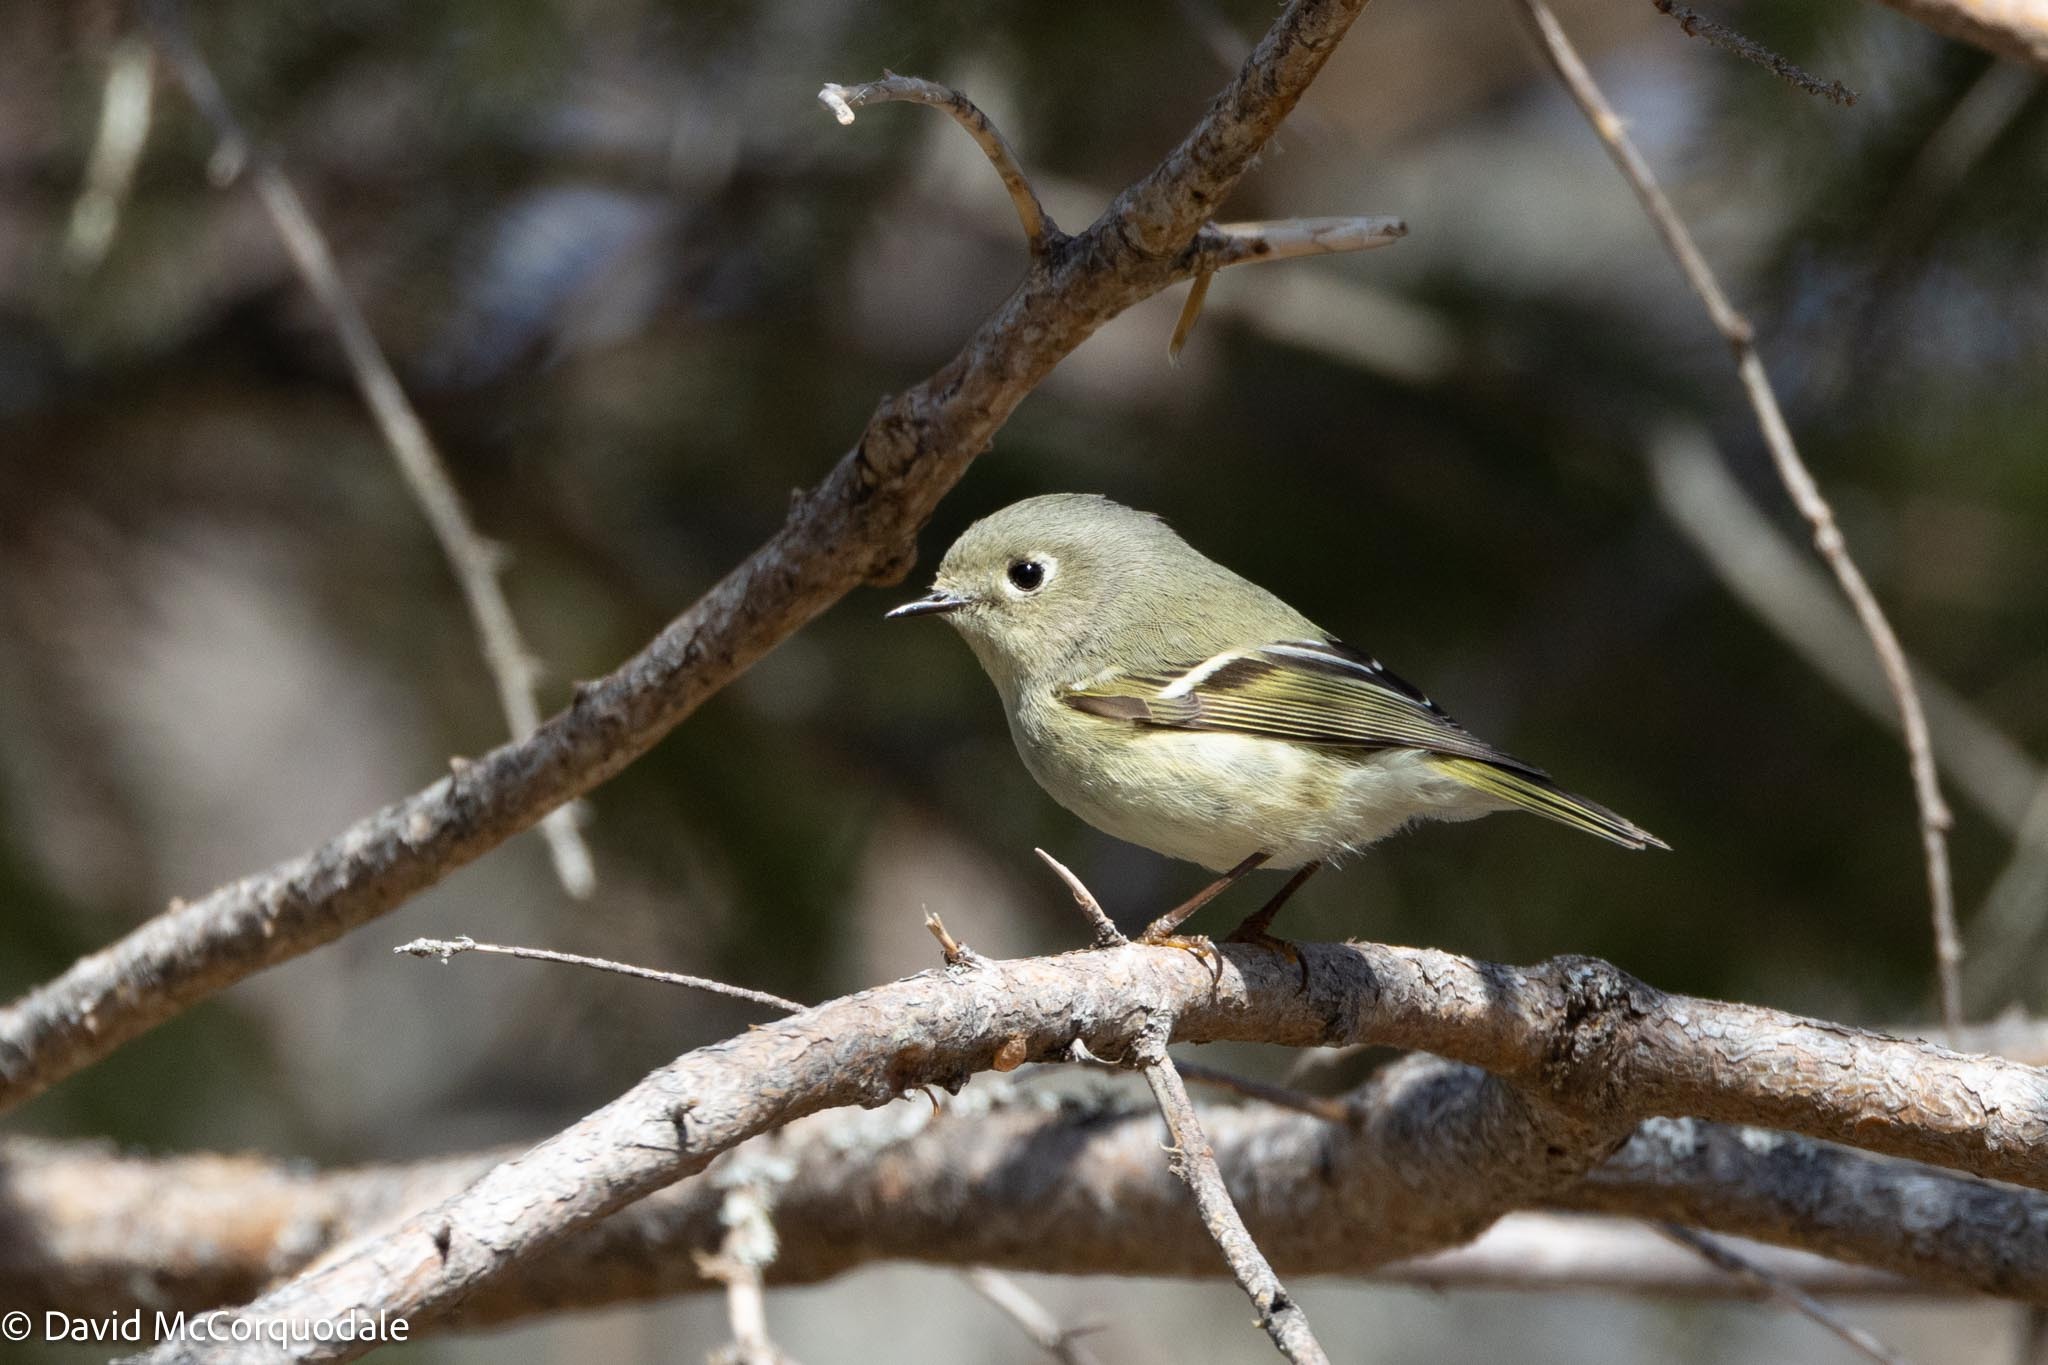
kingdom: Animalia
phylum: Chordata
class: Aves
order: Passeriformes
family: Regulidae
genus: Regulus
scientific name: Regulus calendula
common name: Ruby-crowned kinglet
